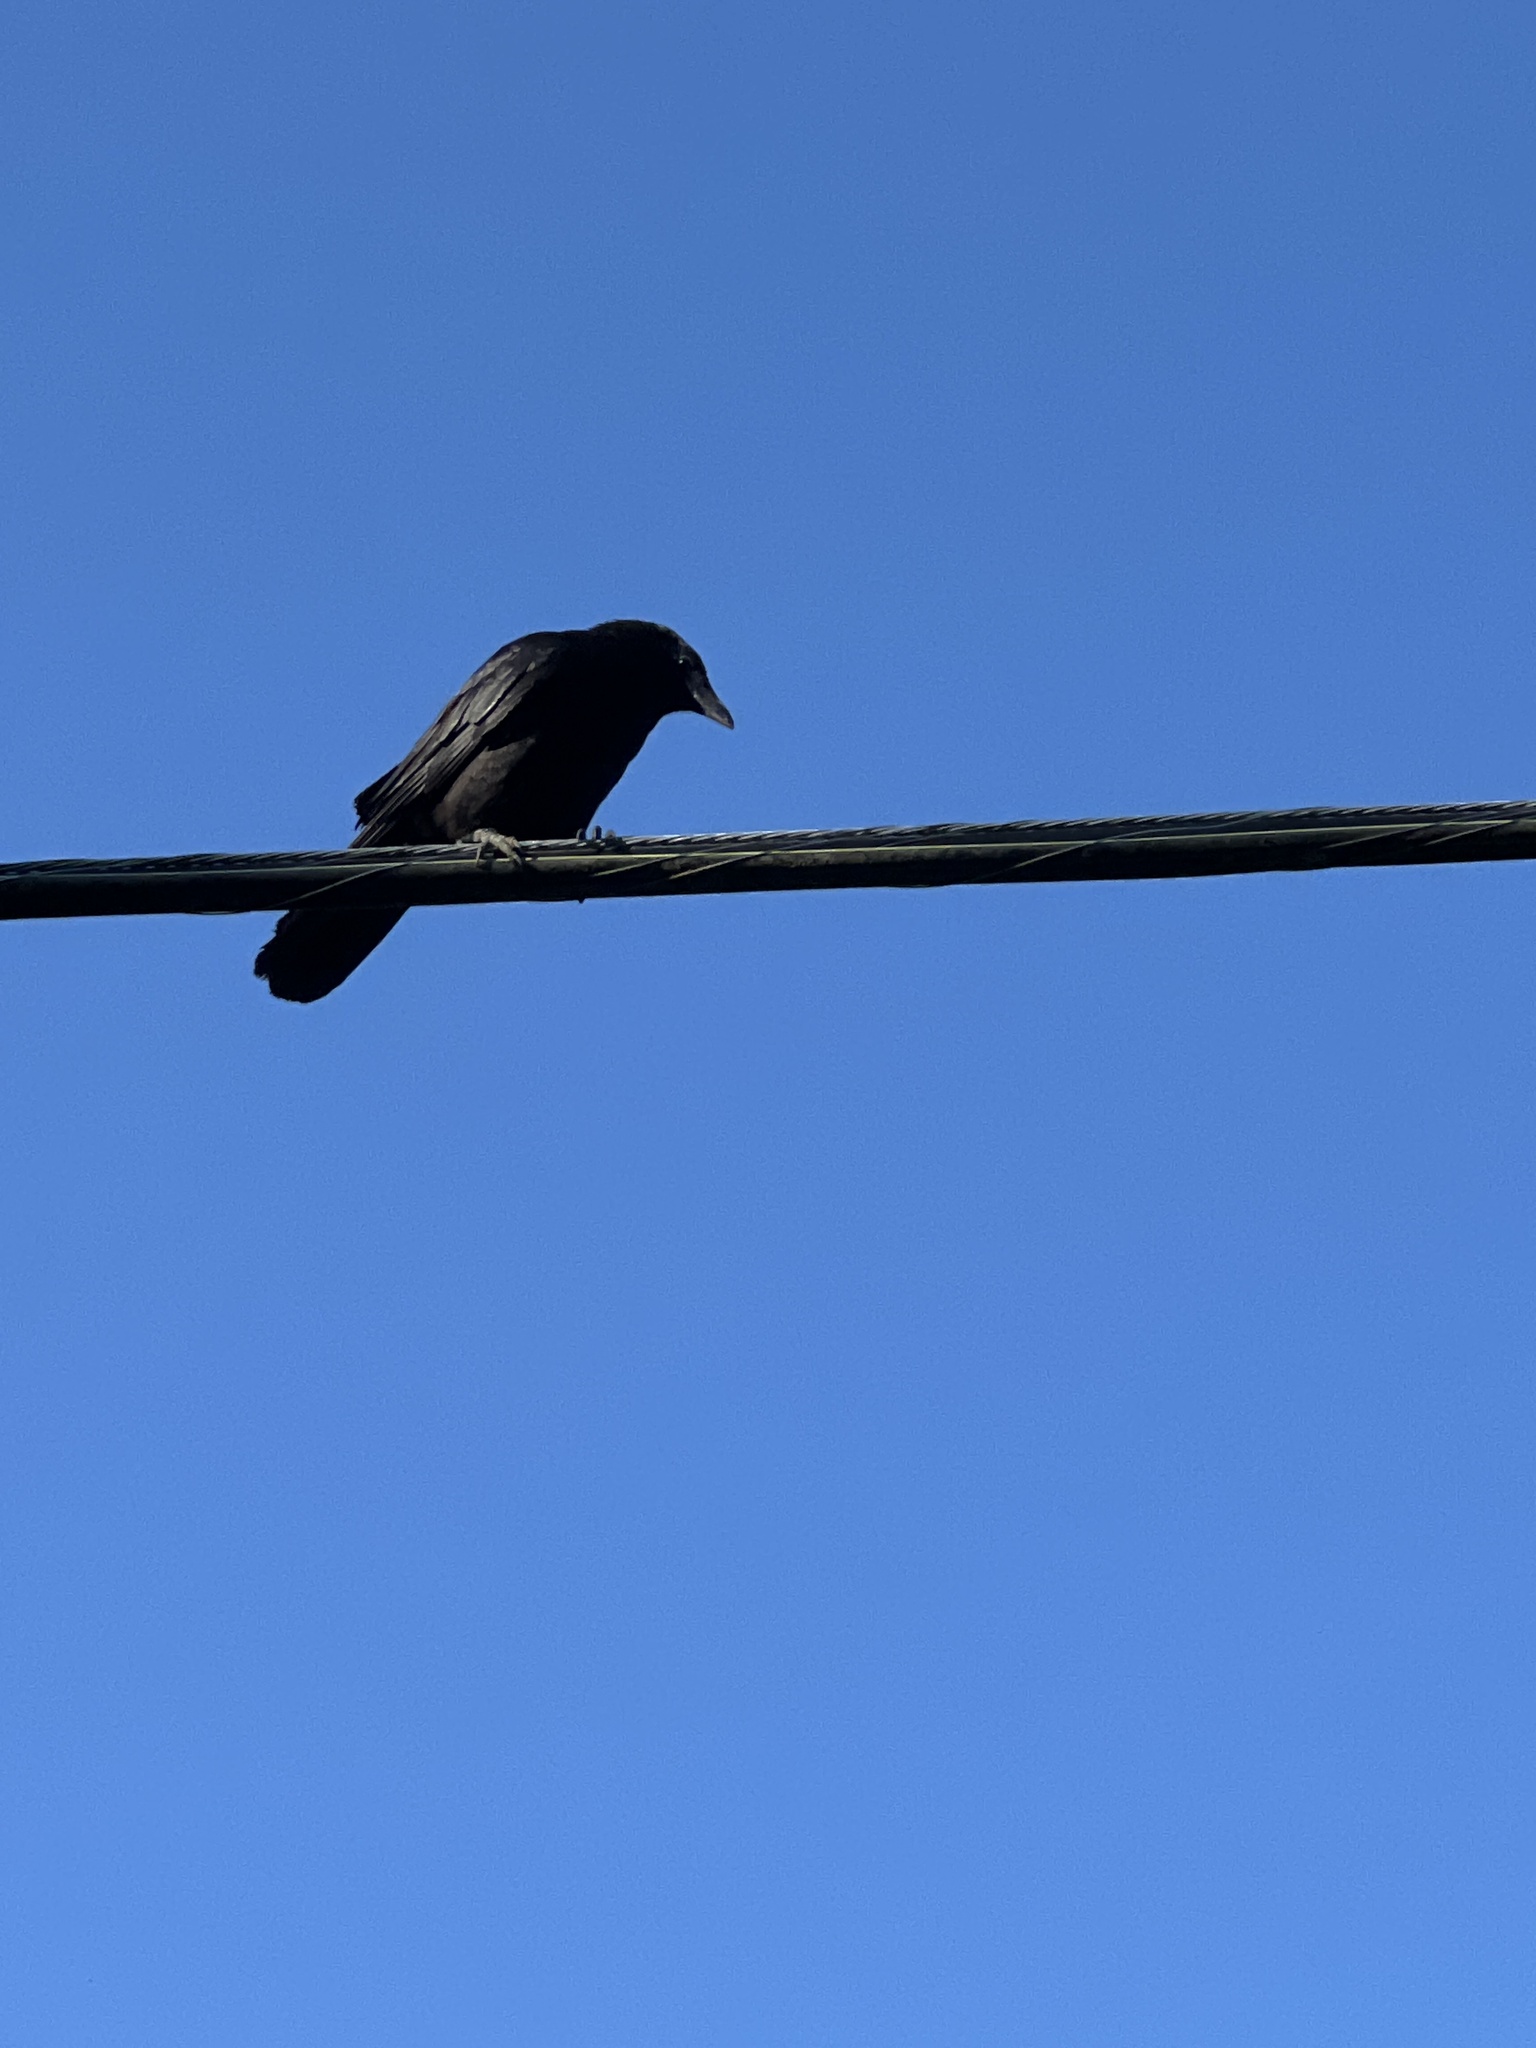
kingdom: Animalia
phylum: Chordata
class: Aves
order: Passeriformes
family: Corvidae
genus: Corvus
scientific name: Corvus brachyrhynchos
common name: American crow
